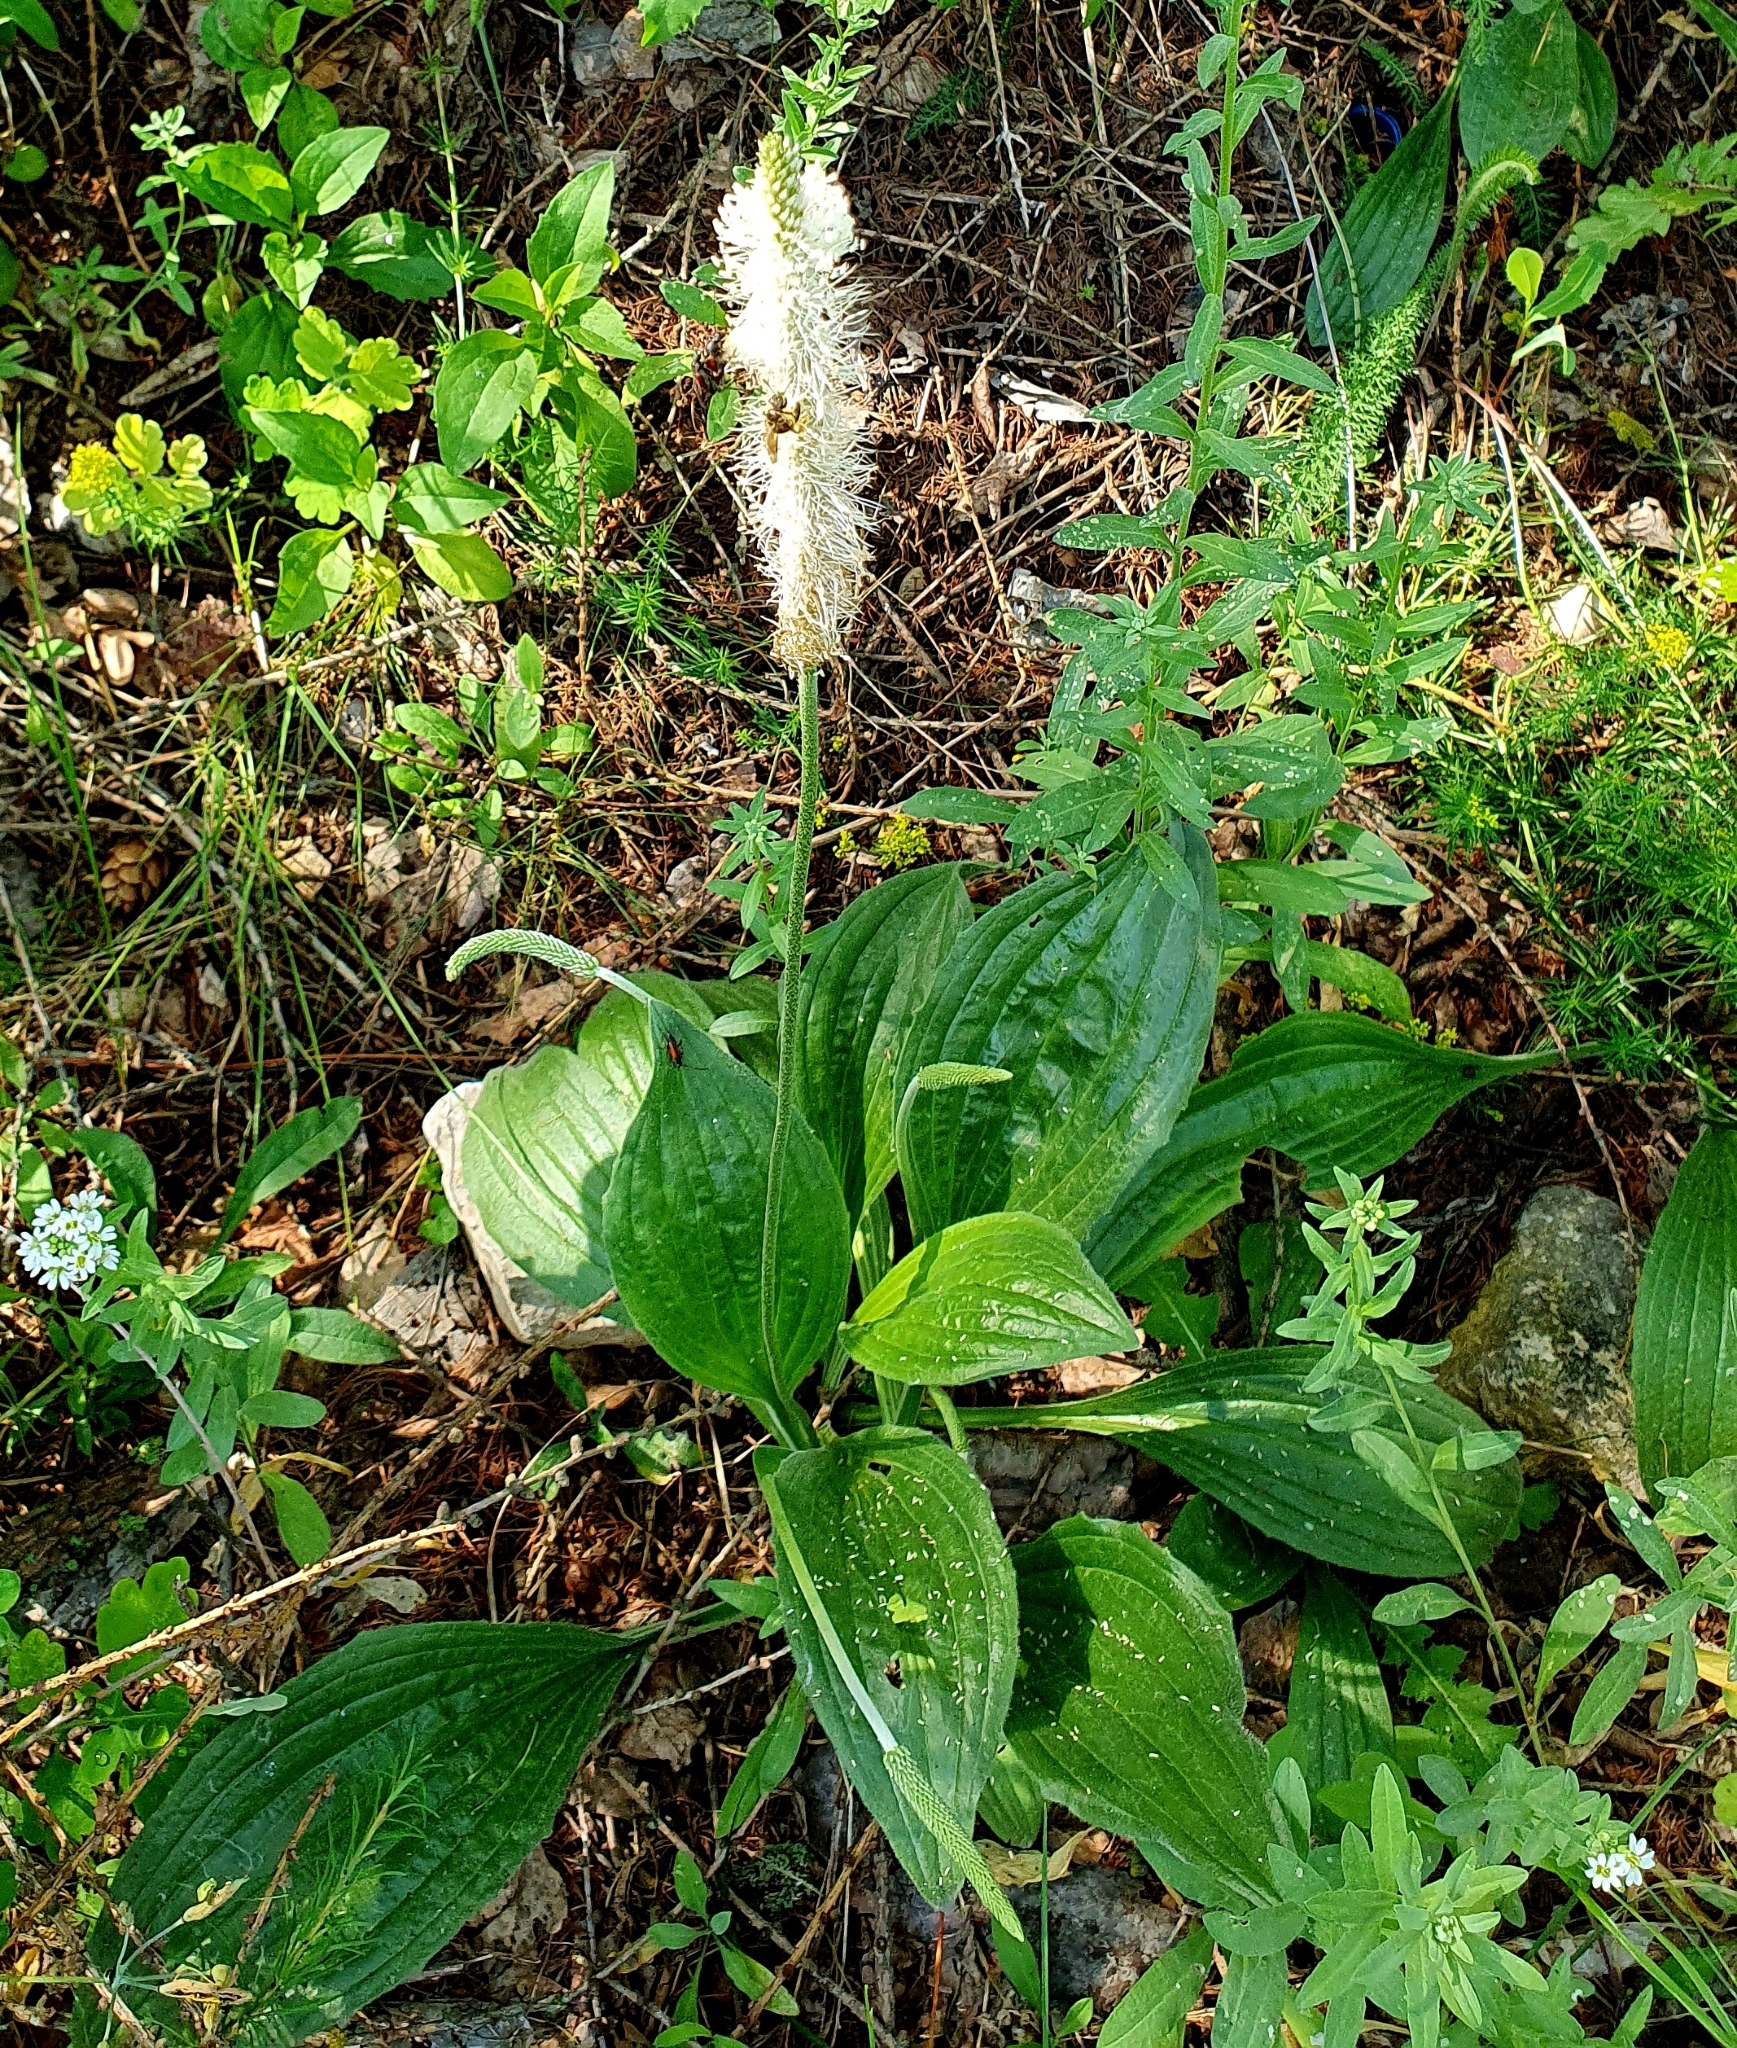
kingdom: Plantae
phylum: Tracheophyta
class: Magnoliopsida
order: Lamiales
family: Plantaginaceae
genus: Plantago
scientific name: Plantago urvillei
